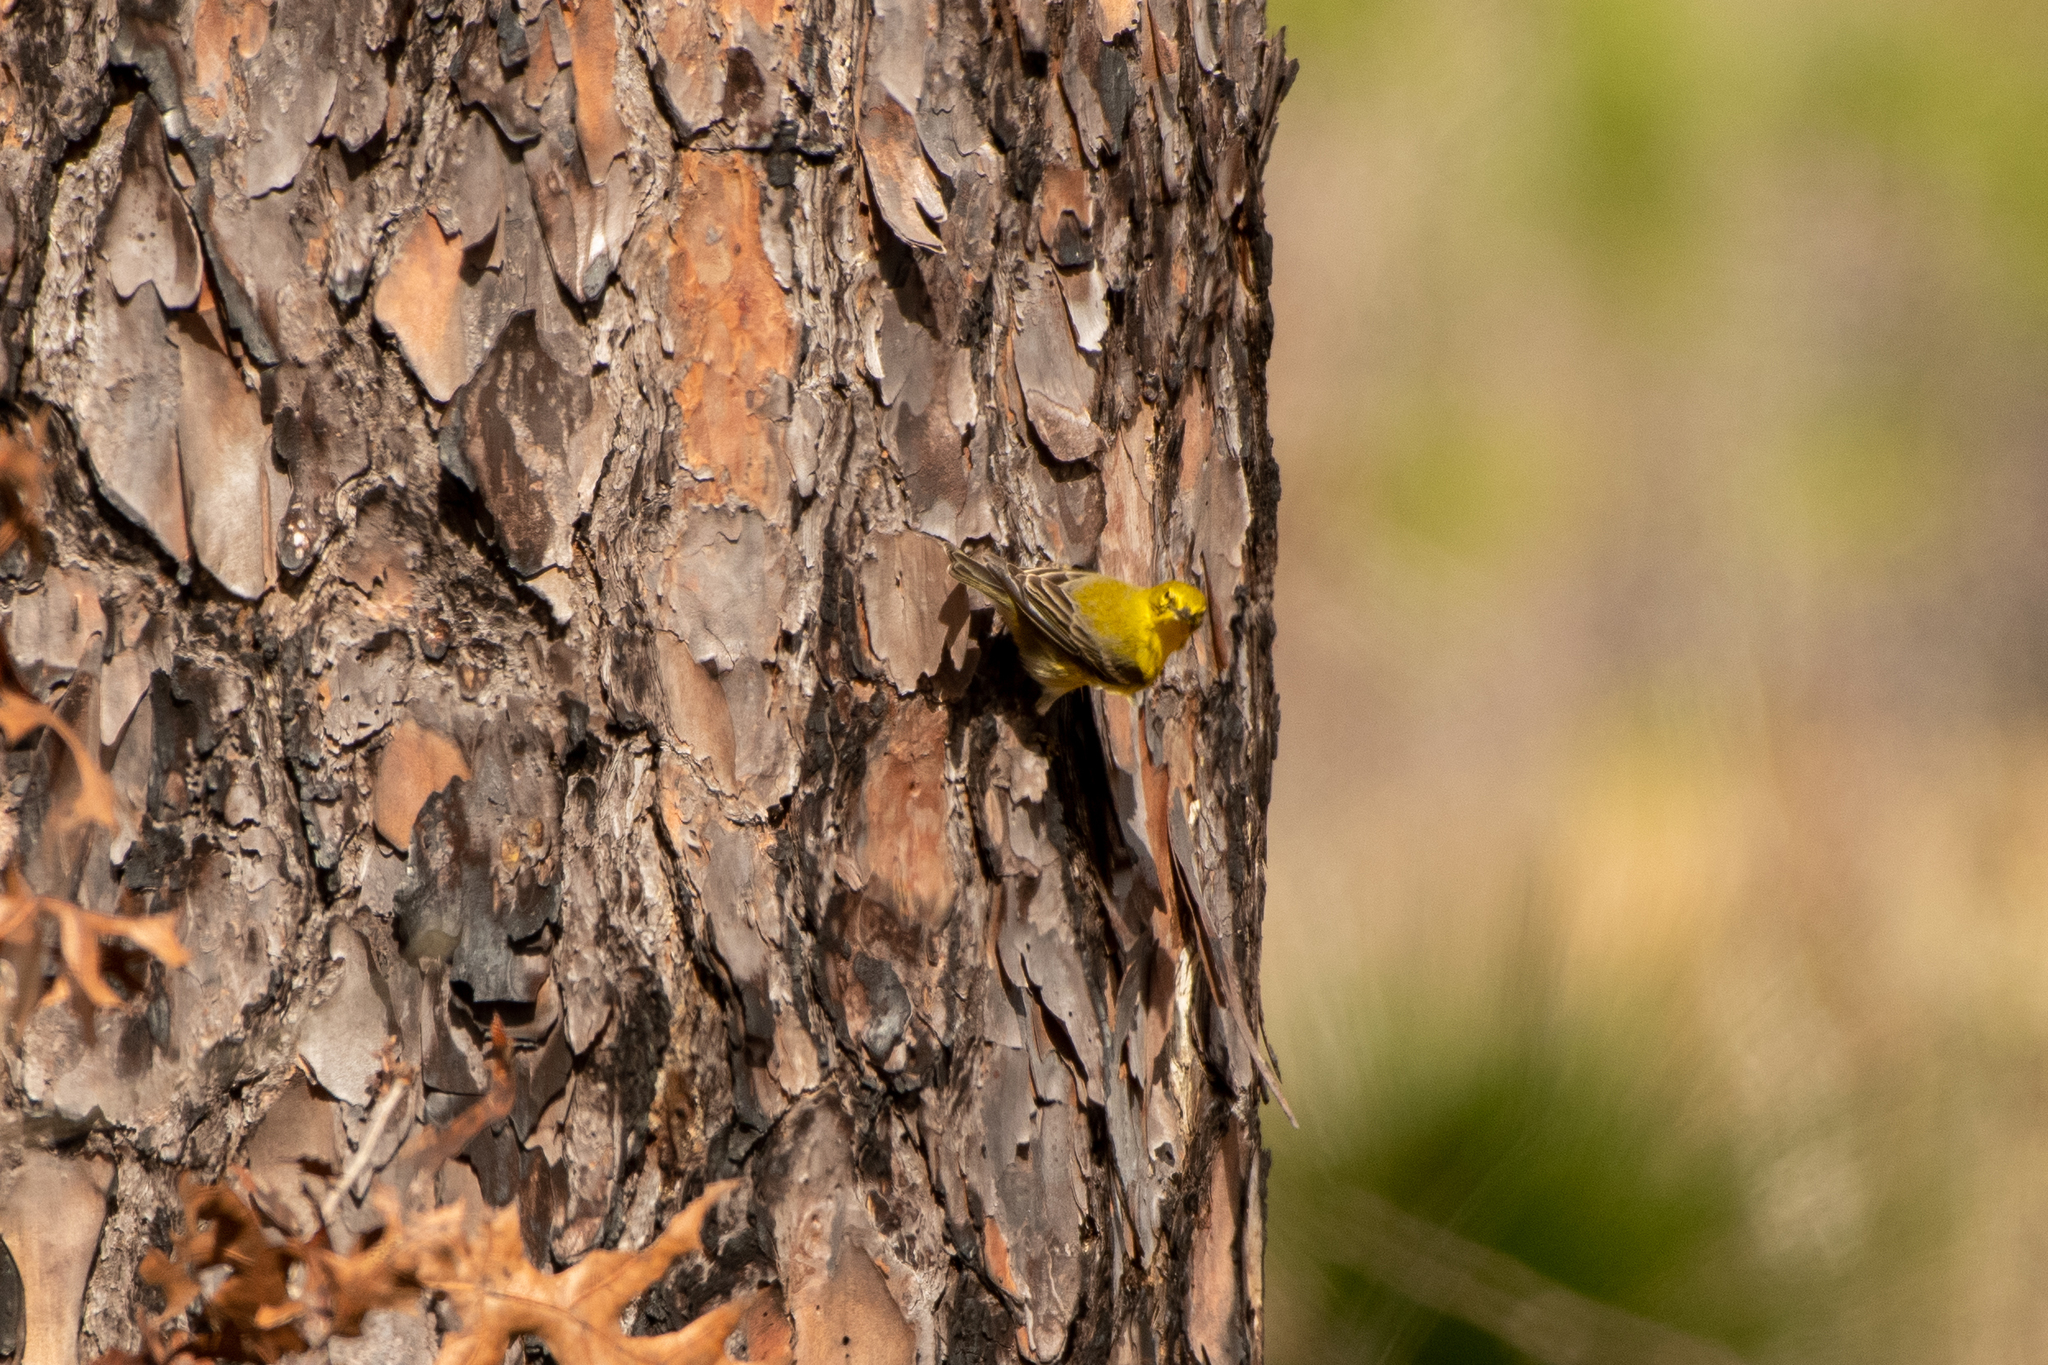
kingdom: Animalia
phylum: Chordata
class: Aves
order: Passeriformes
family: Parulidae
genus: Setophaga
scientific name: Setophaga pinus
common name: Pine warbler
